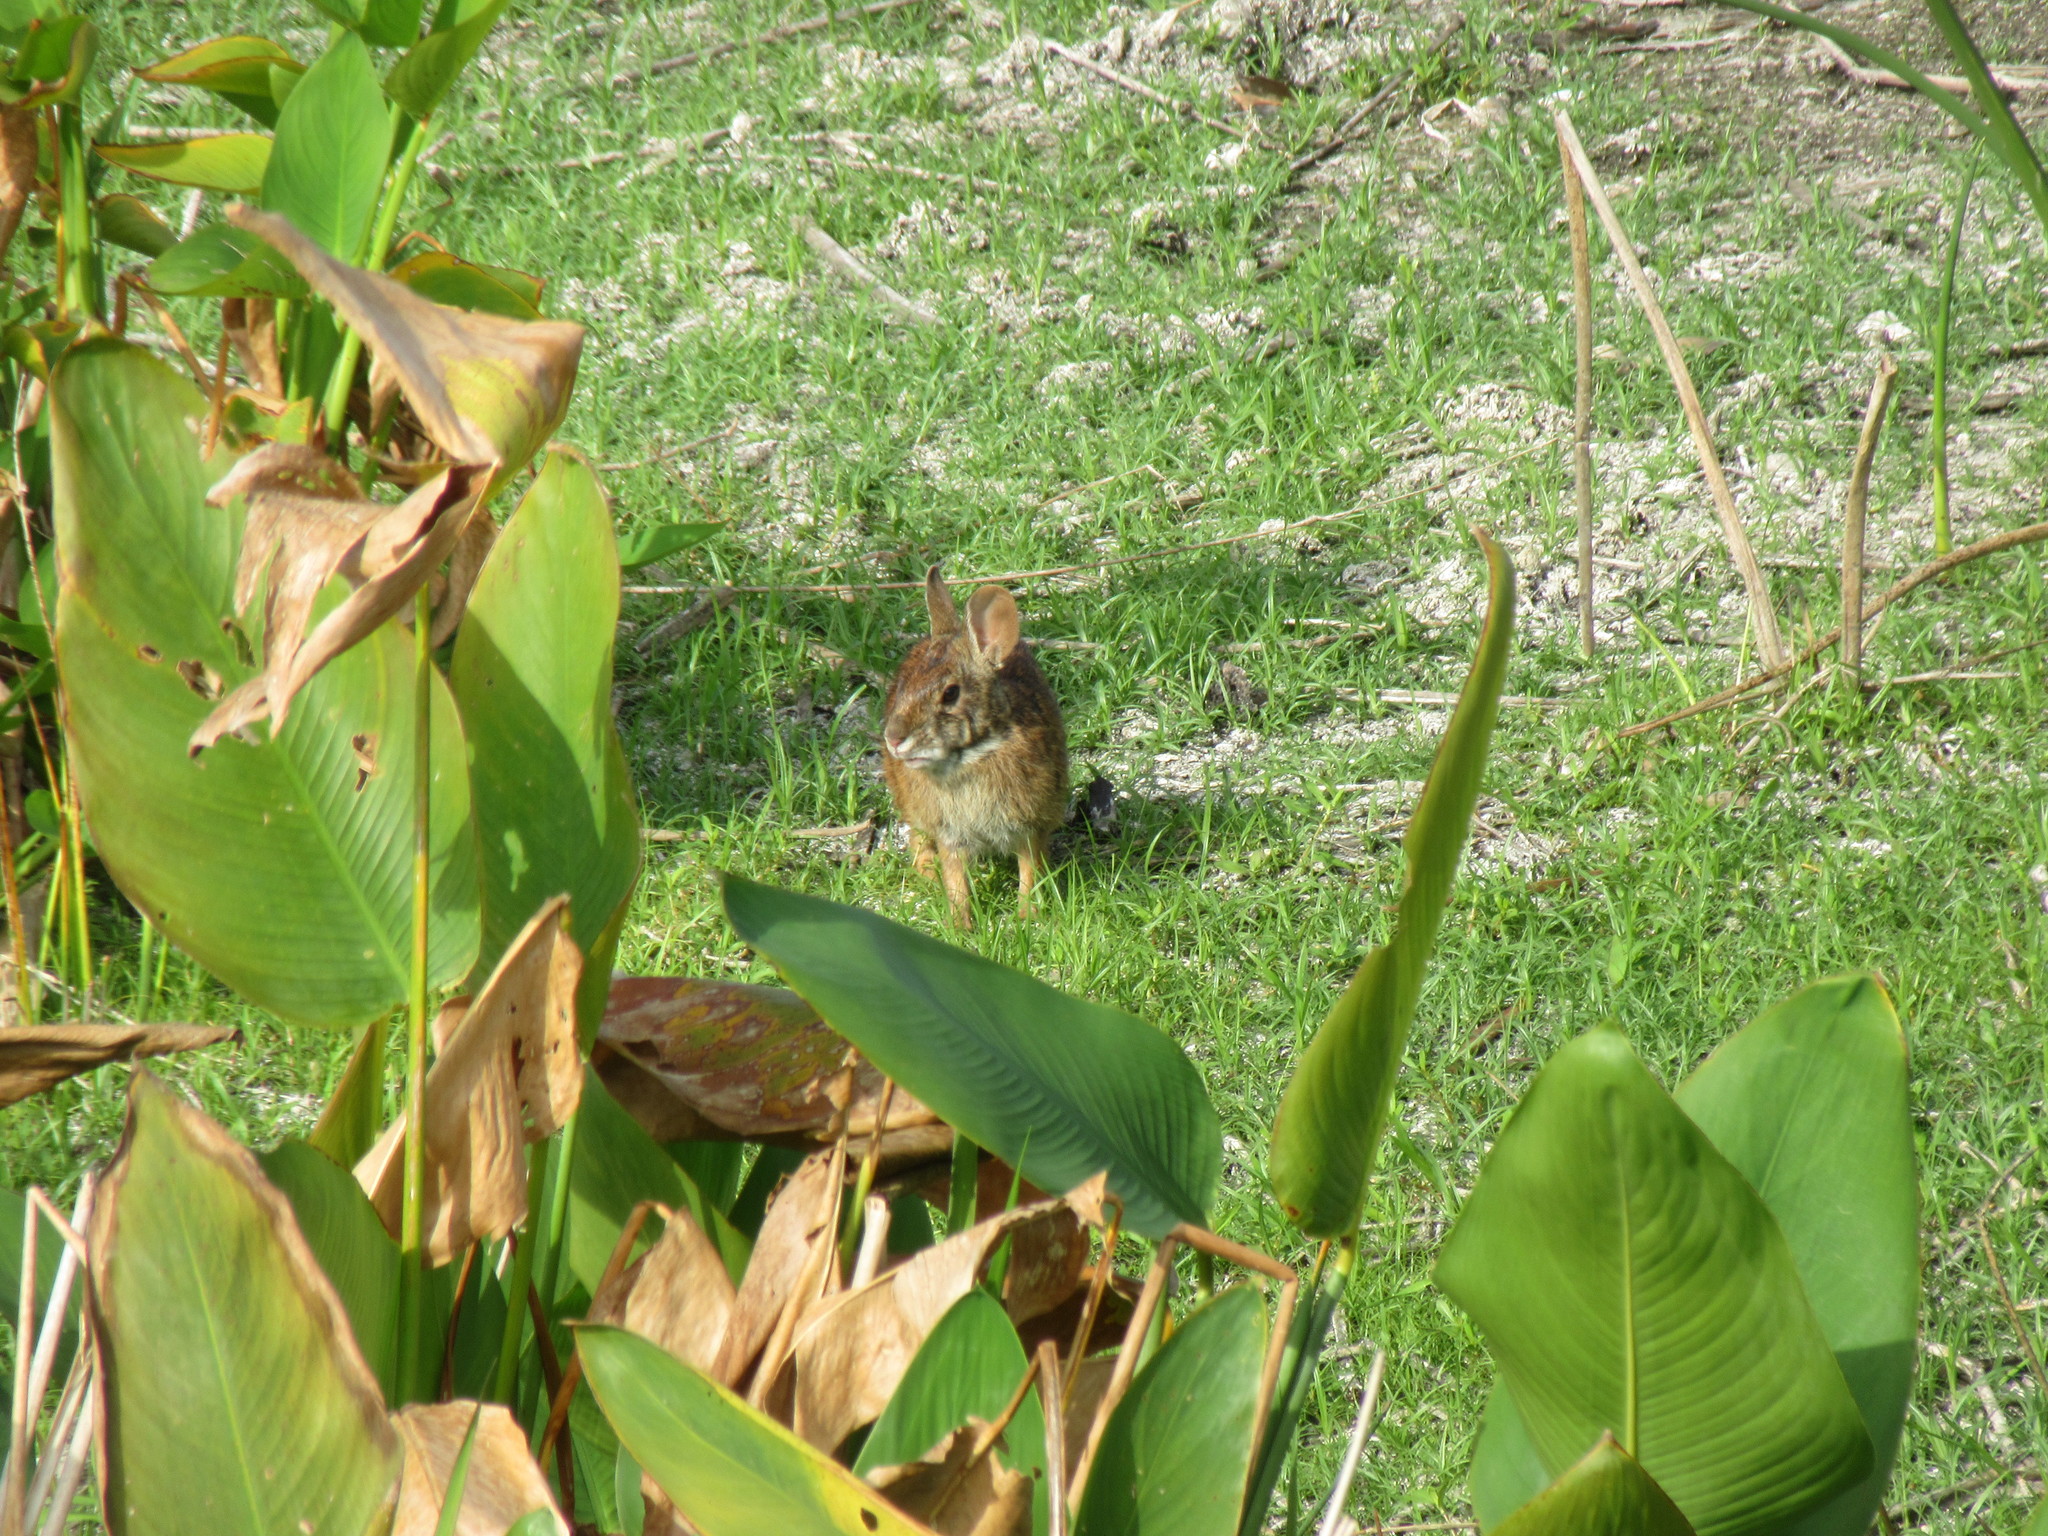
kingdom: Animalia
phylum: Chordata
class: Mammalia
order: Lagomorpha
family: Leporidae
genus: Sylvilagus
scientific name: Sylvilagus palustris
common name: Marsh rabbit
